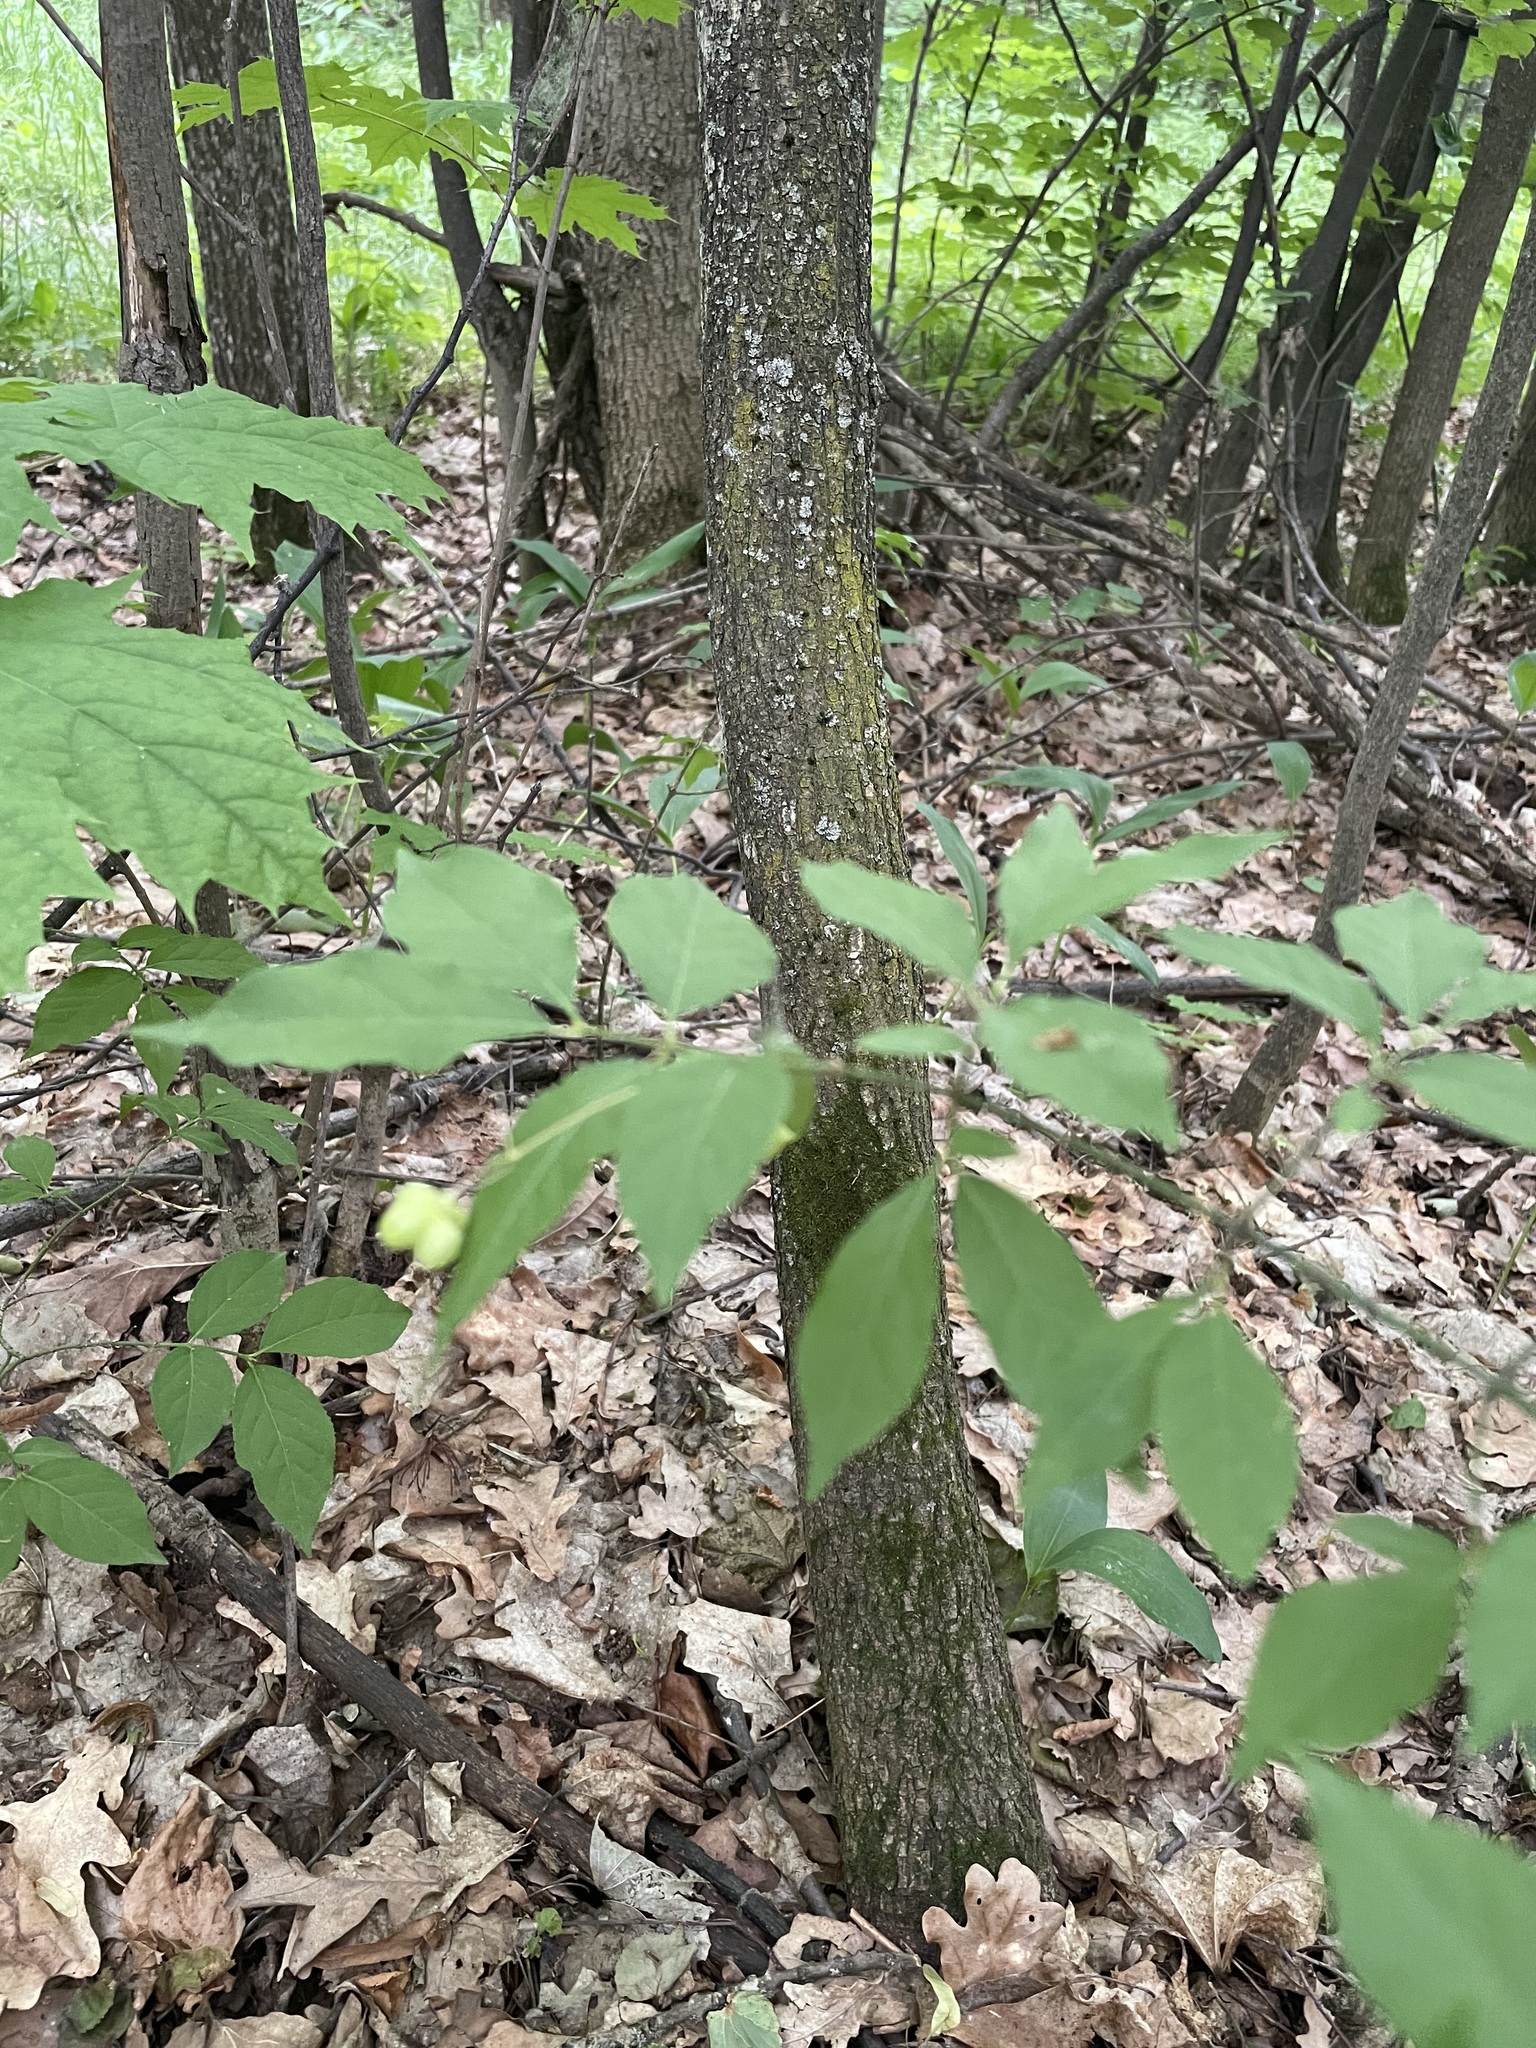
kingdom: Plantae
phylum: Tracheophyta
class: Magnoliopsida
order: Celastrales
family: Celastraceae
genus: Euonymus
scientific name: Euonymus verrucosus
